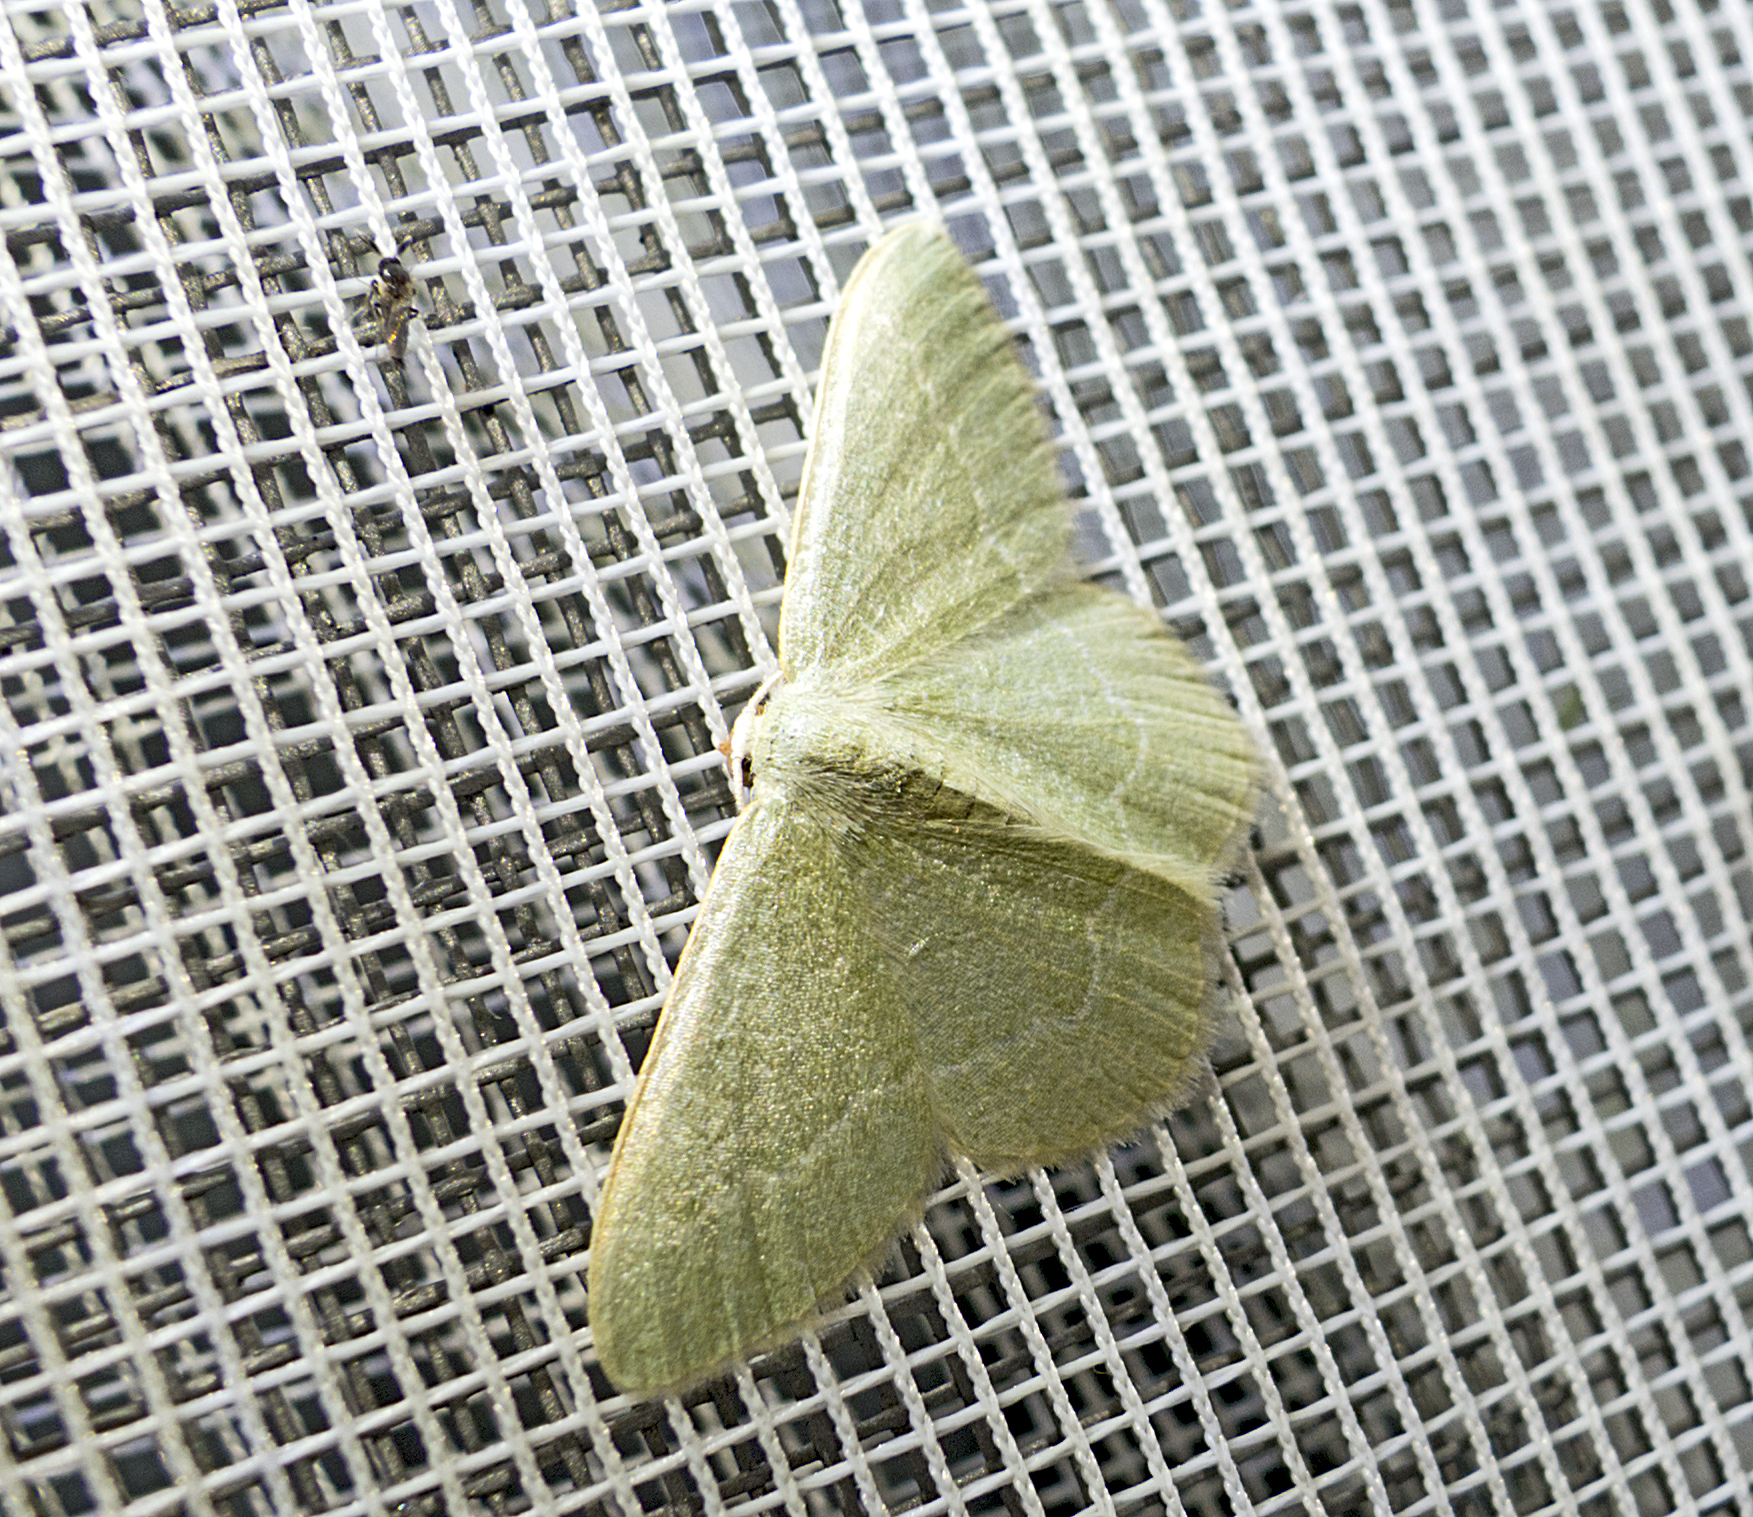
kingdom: Animalia
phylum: Arthropoda
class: Insecta
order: Lepidoptera
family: Geometridae
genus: Chlorissa
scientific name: Chlorissa etruscaria
